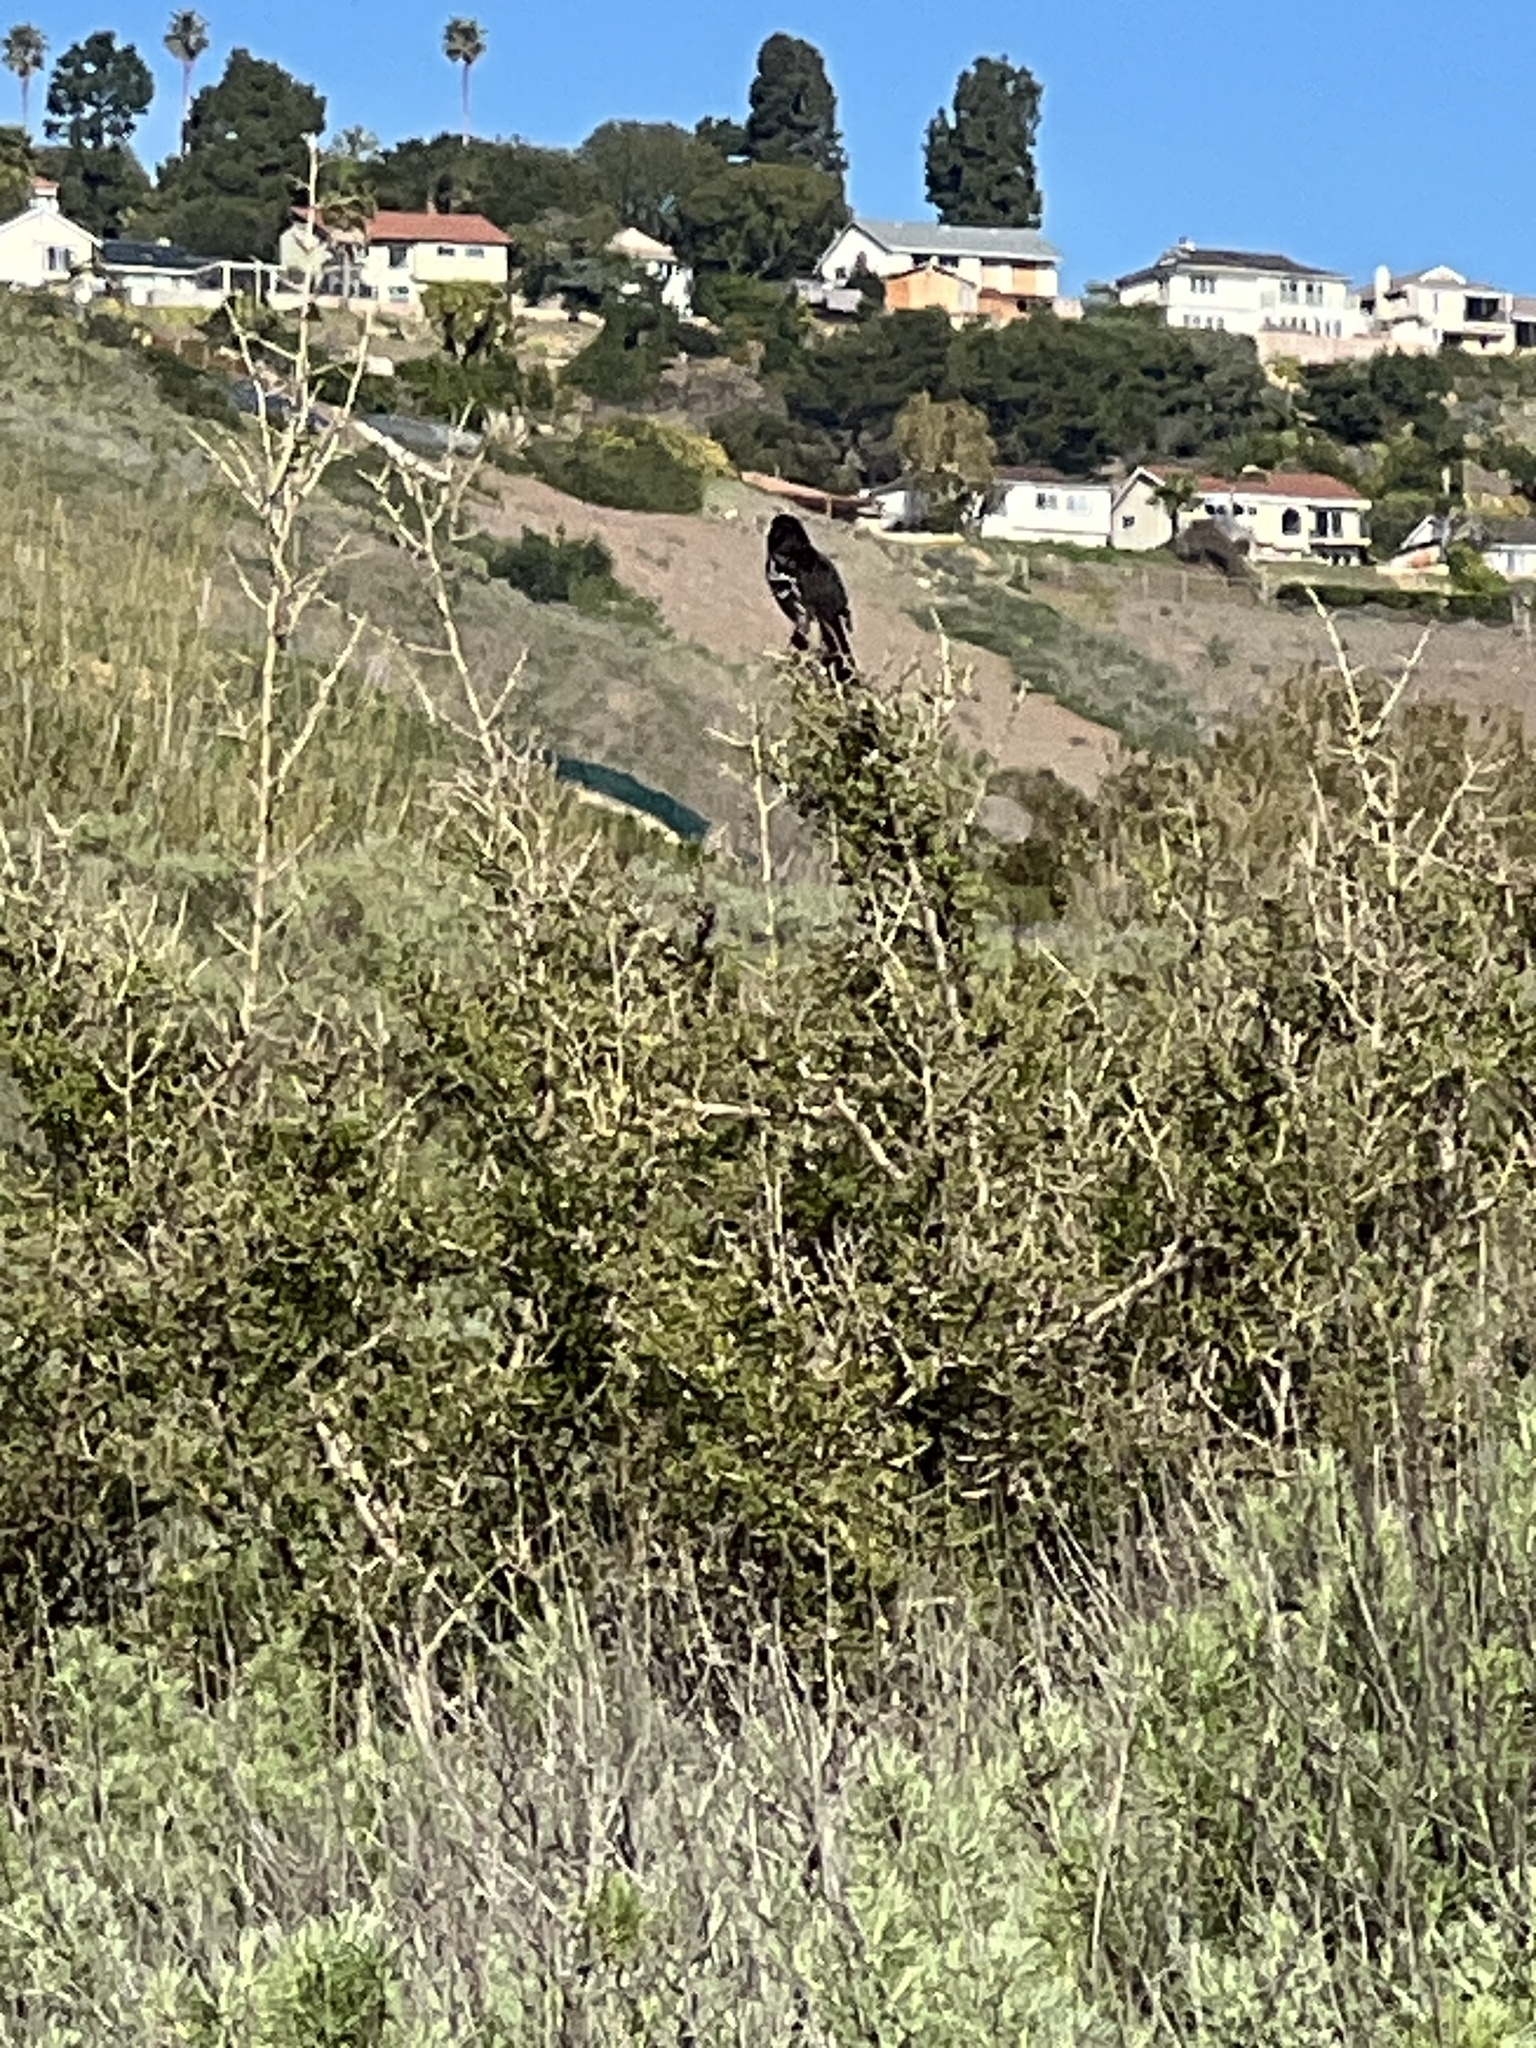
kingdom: Animalia
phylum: Chordata
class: Aves
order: Passeriformes
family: Passerellidae
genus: Pipilo
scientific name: Pipilo maculatus
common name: Spotted towhee
